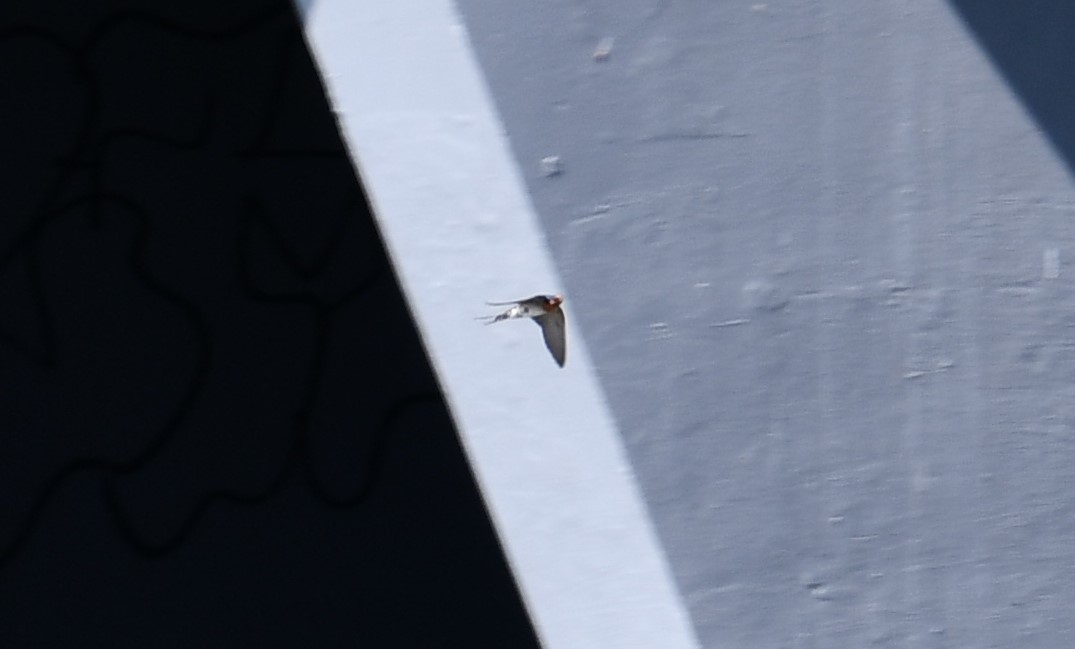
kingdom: Animalia
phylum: Chordata
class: Aves
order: Passeriformes
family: Hirundinidae
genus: Hirundo
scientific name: Hirundo neoxena
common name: Welcome swallow
